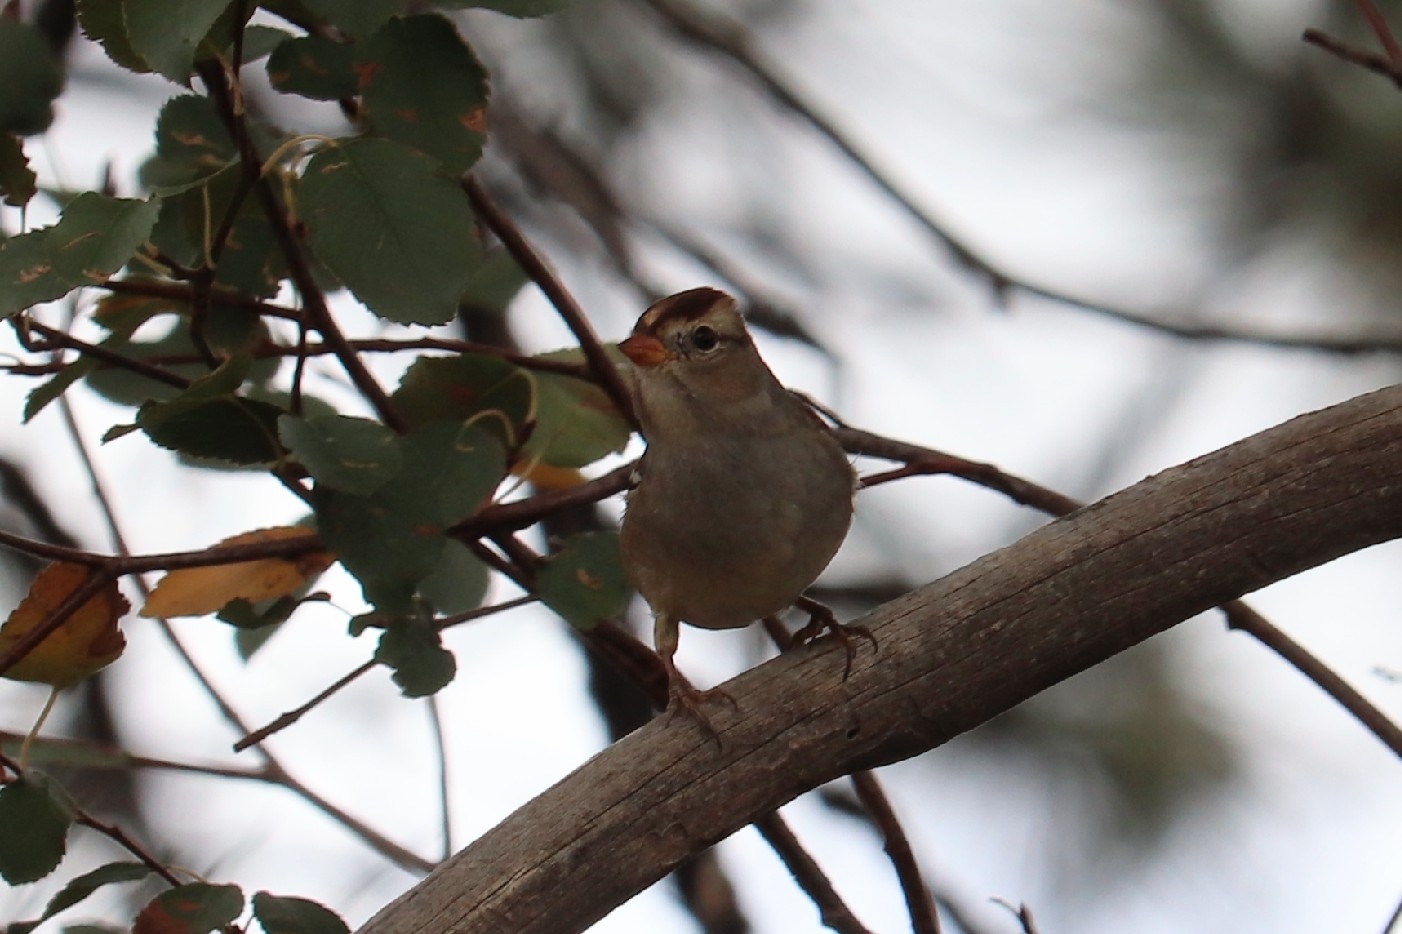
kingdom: Animalia
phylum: Chordata
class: Aves
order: Passeriformes
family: Passerellidae
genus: Zonotrichia
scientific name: Zonotrichia leucophrys
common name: White-crowned sparrow
